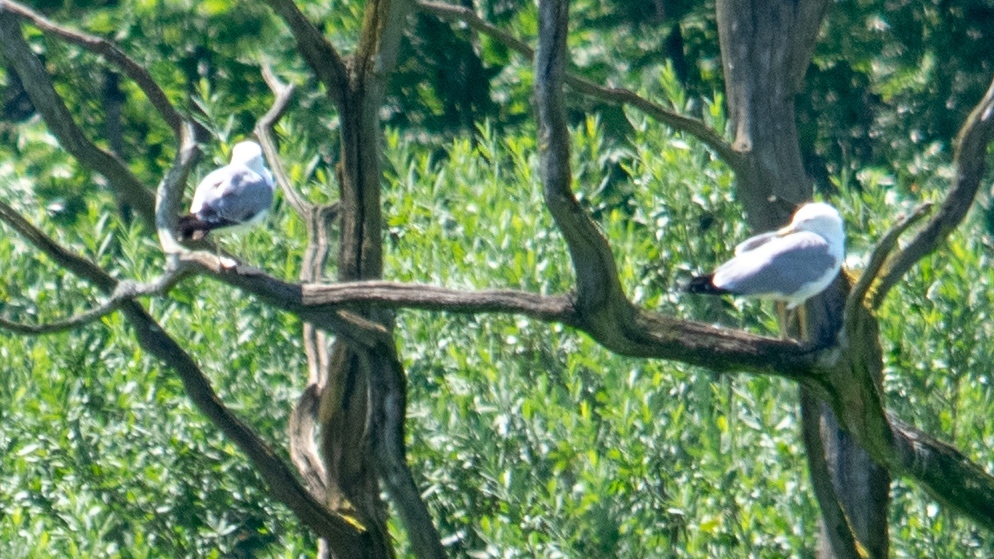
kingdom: Animalia
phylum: Chordata
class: Aves
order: Charadriiformes
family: Laridae
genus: Larus
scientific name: Larus michahellis
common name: Yellow-legged gull
